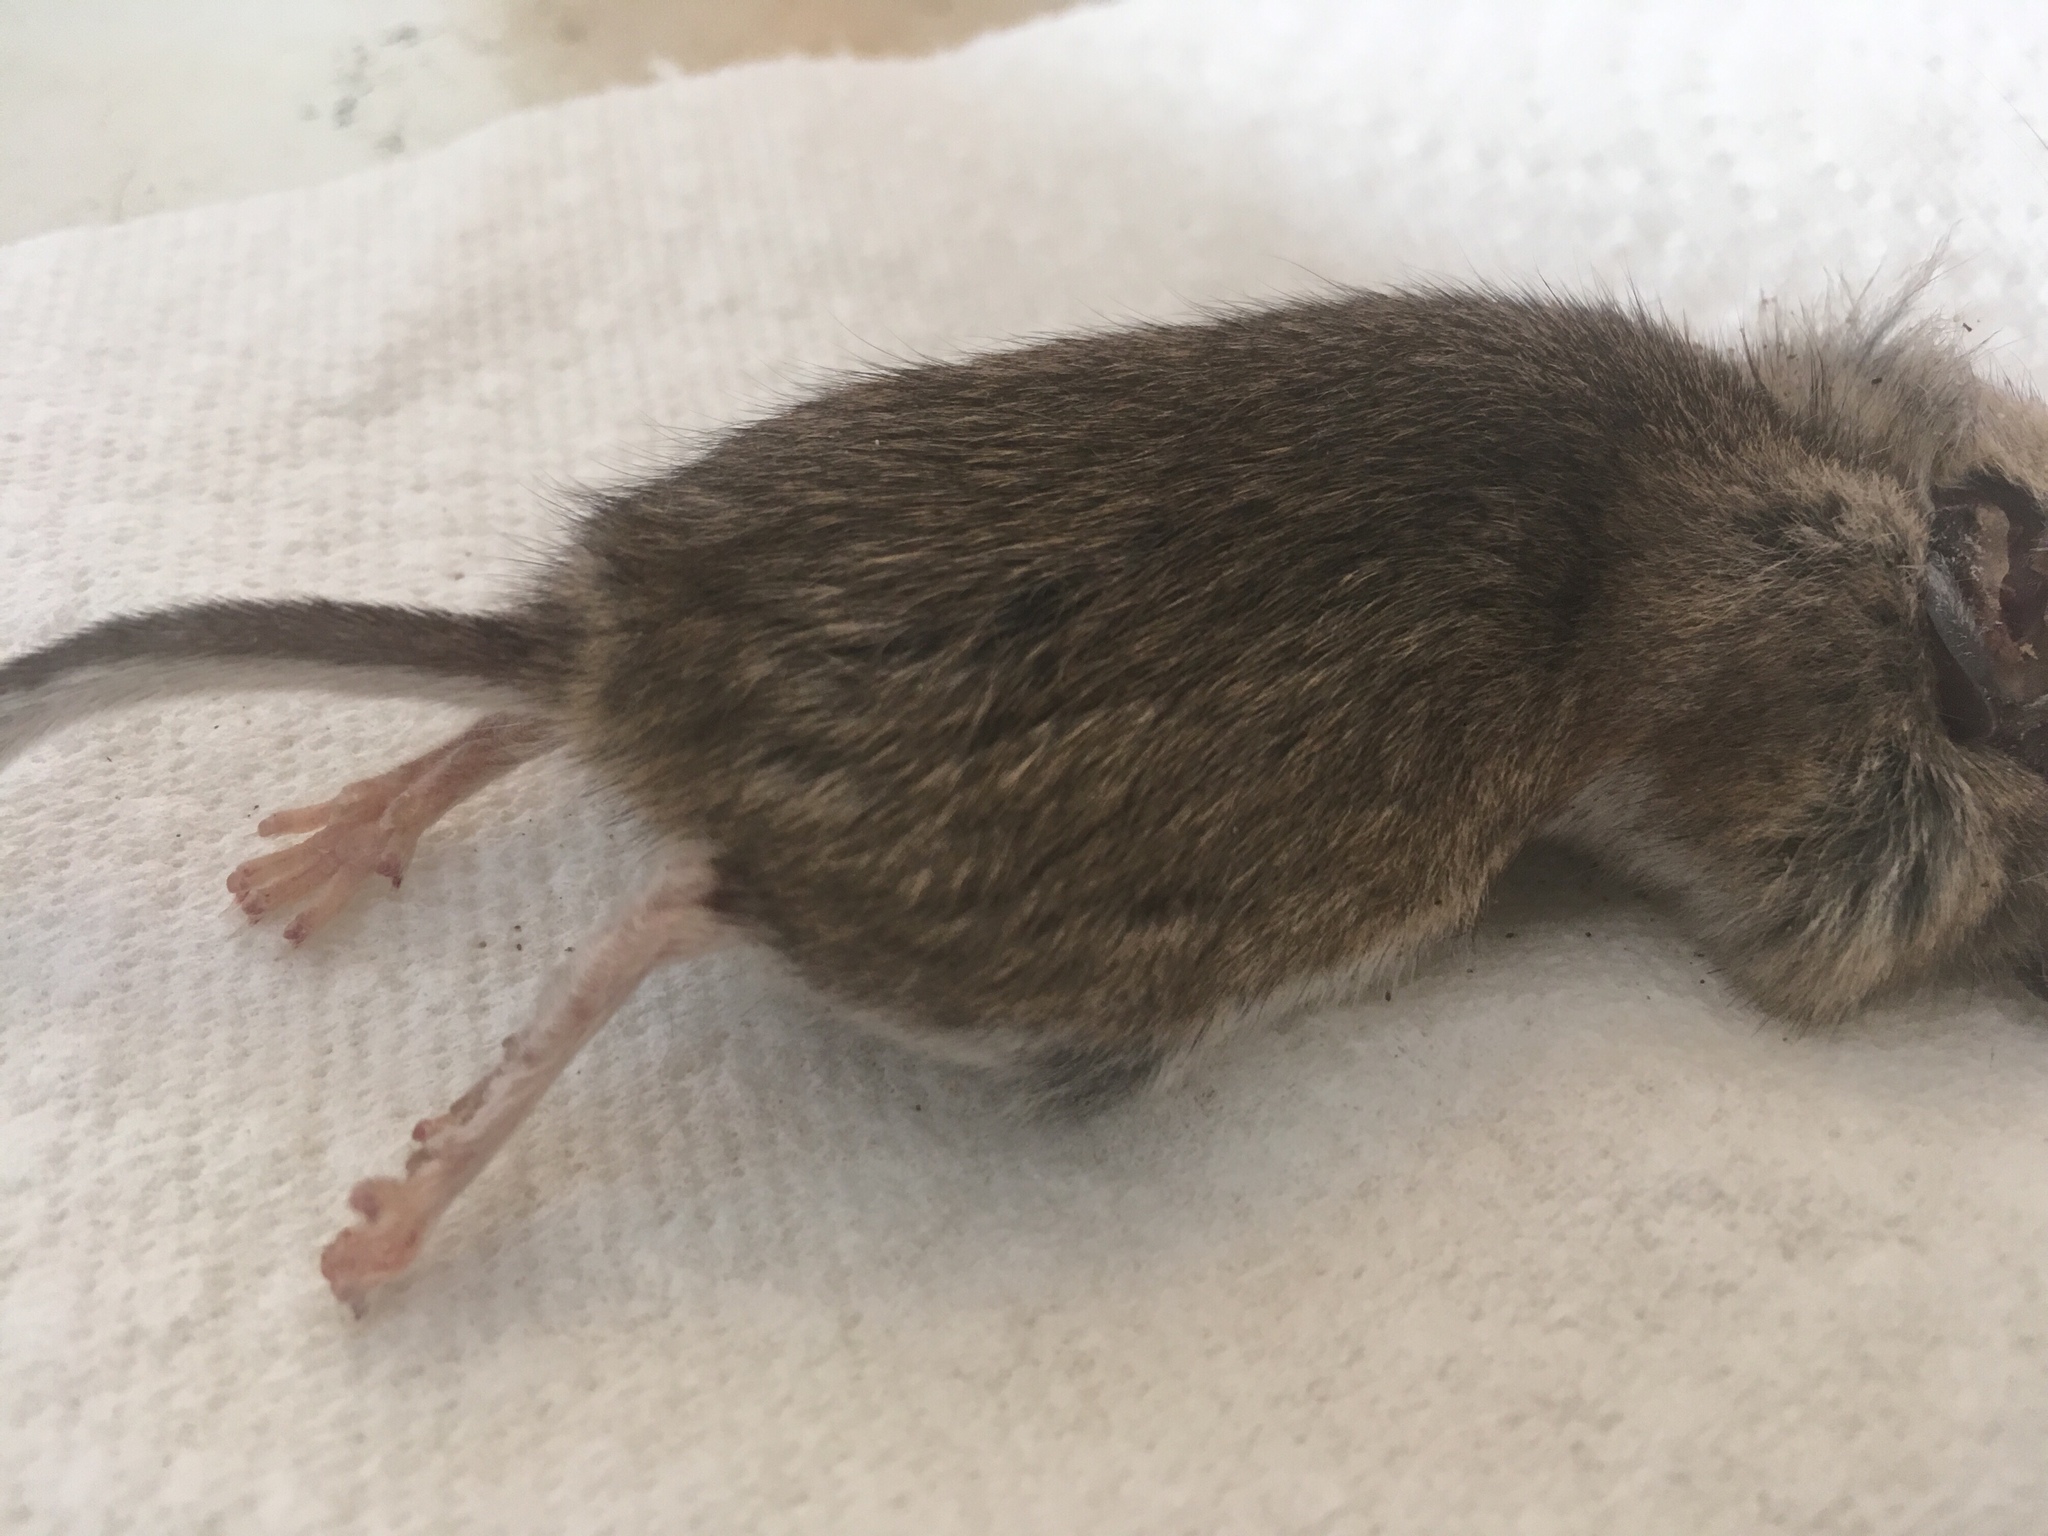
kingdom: Animalia
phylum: Chordata
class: Mammalia
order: Rodentia
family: Cricetidae
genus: Peromyscus
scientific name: Peromyscus maniculatus
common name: Deer mouse
